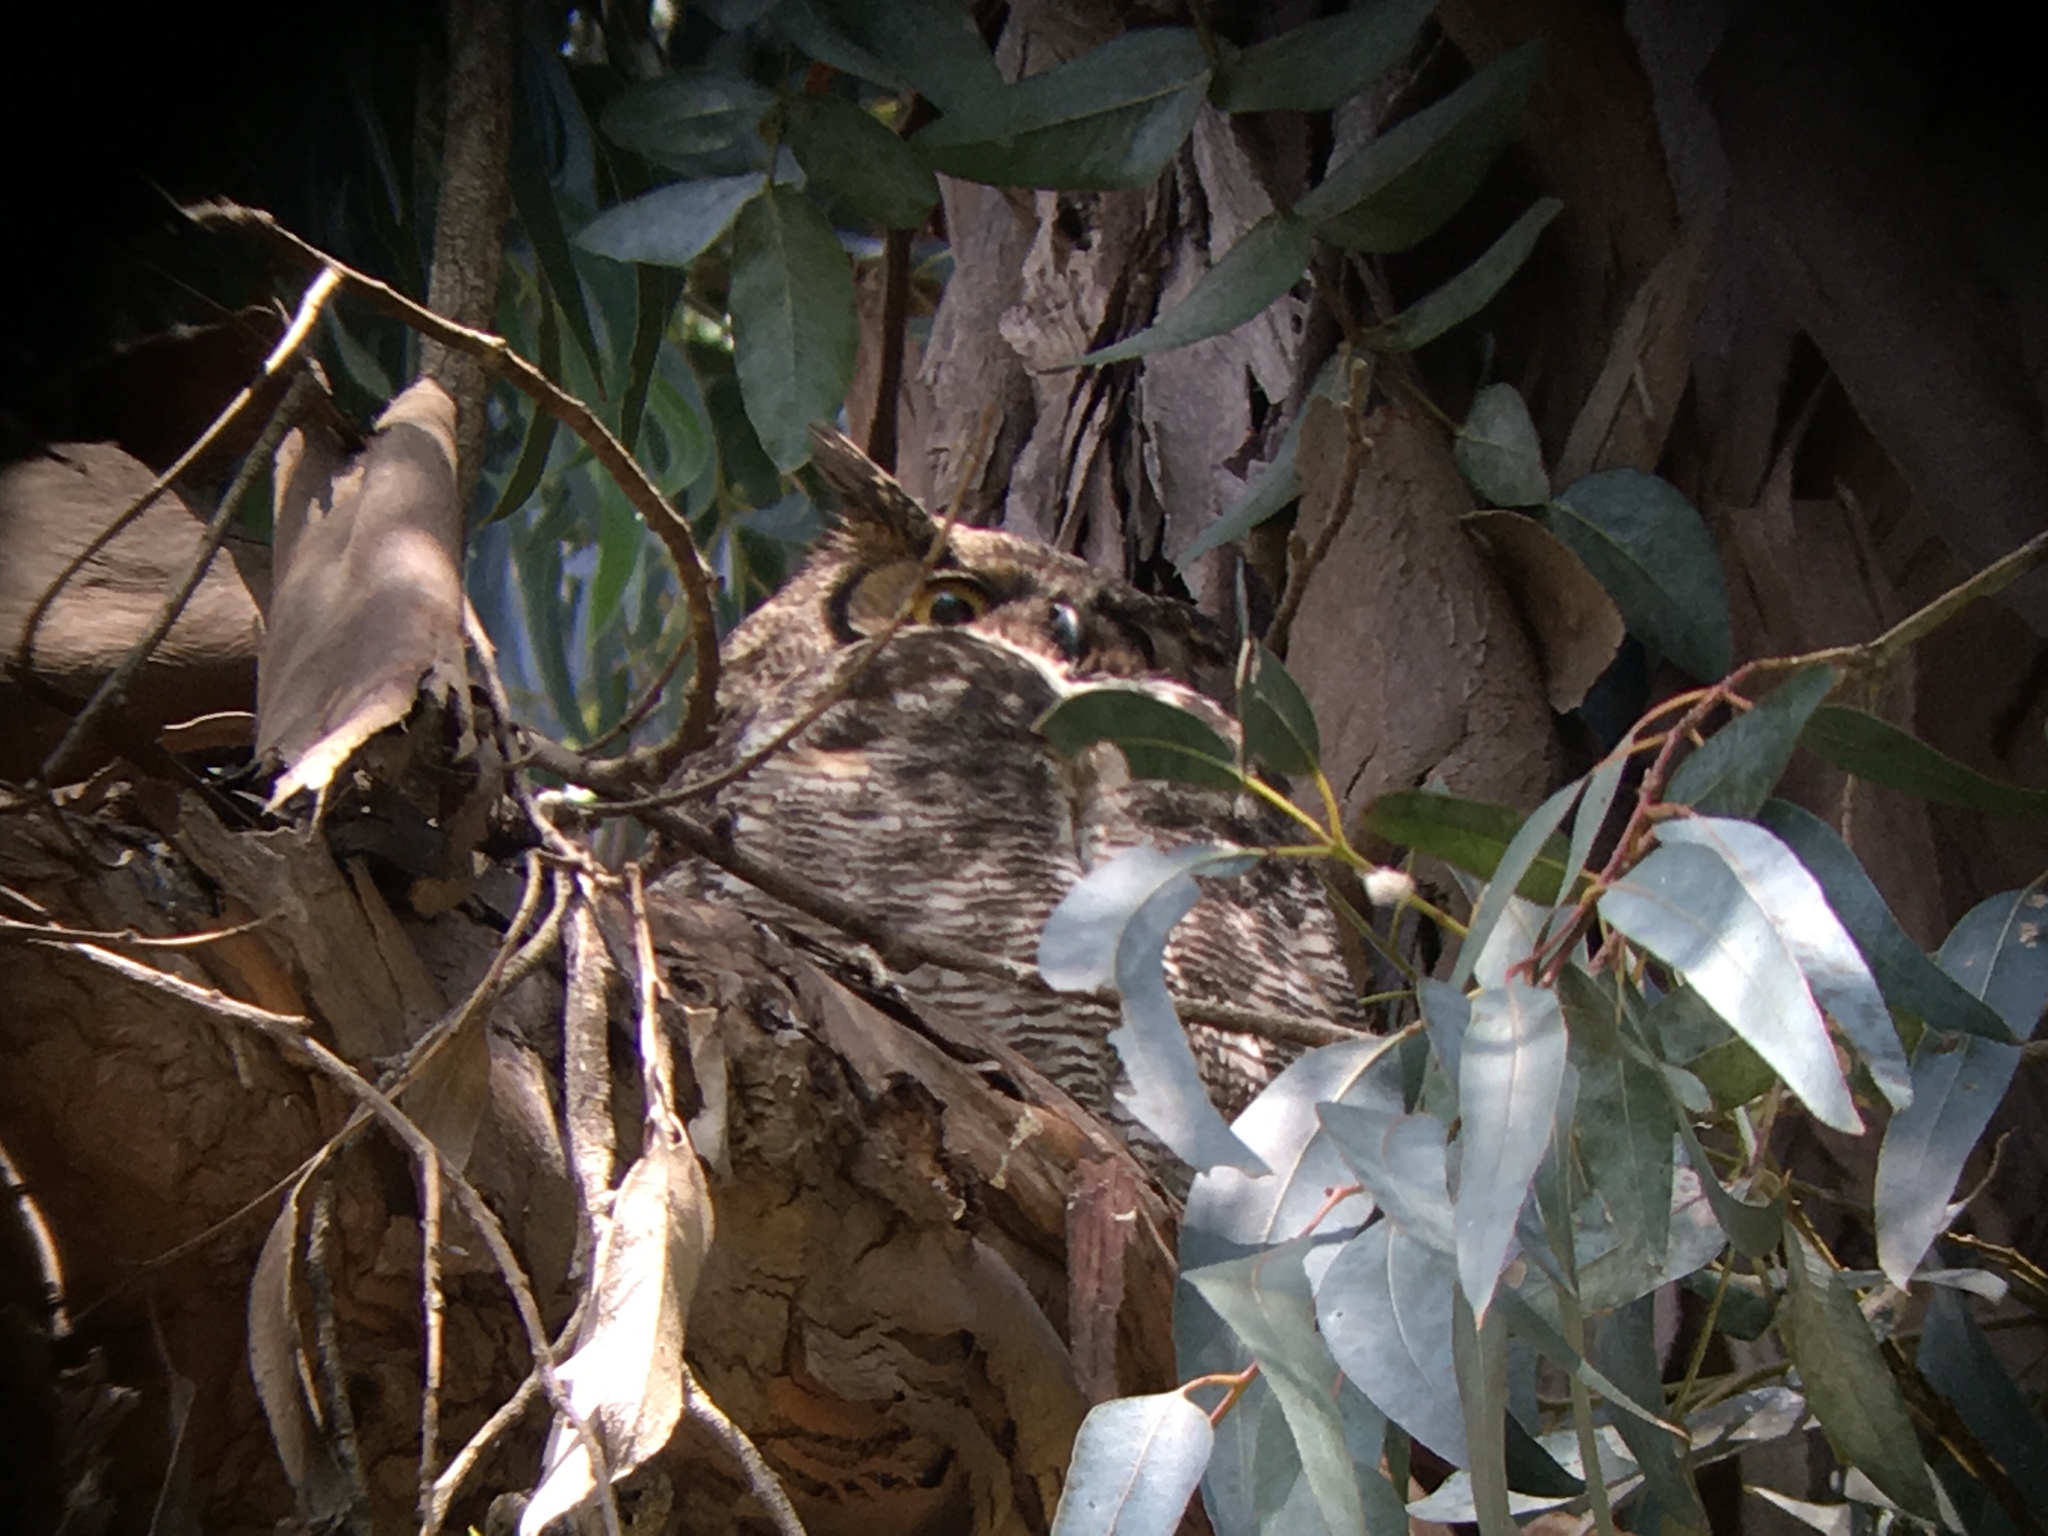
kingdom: Animalia
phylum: Chordata
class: Aves
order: Strigiformes
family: Strigidae
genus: Bubo
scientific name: Bubo virginianus
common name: Great horned owl
